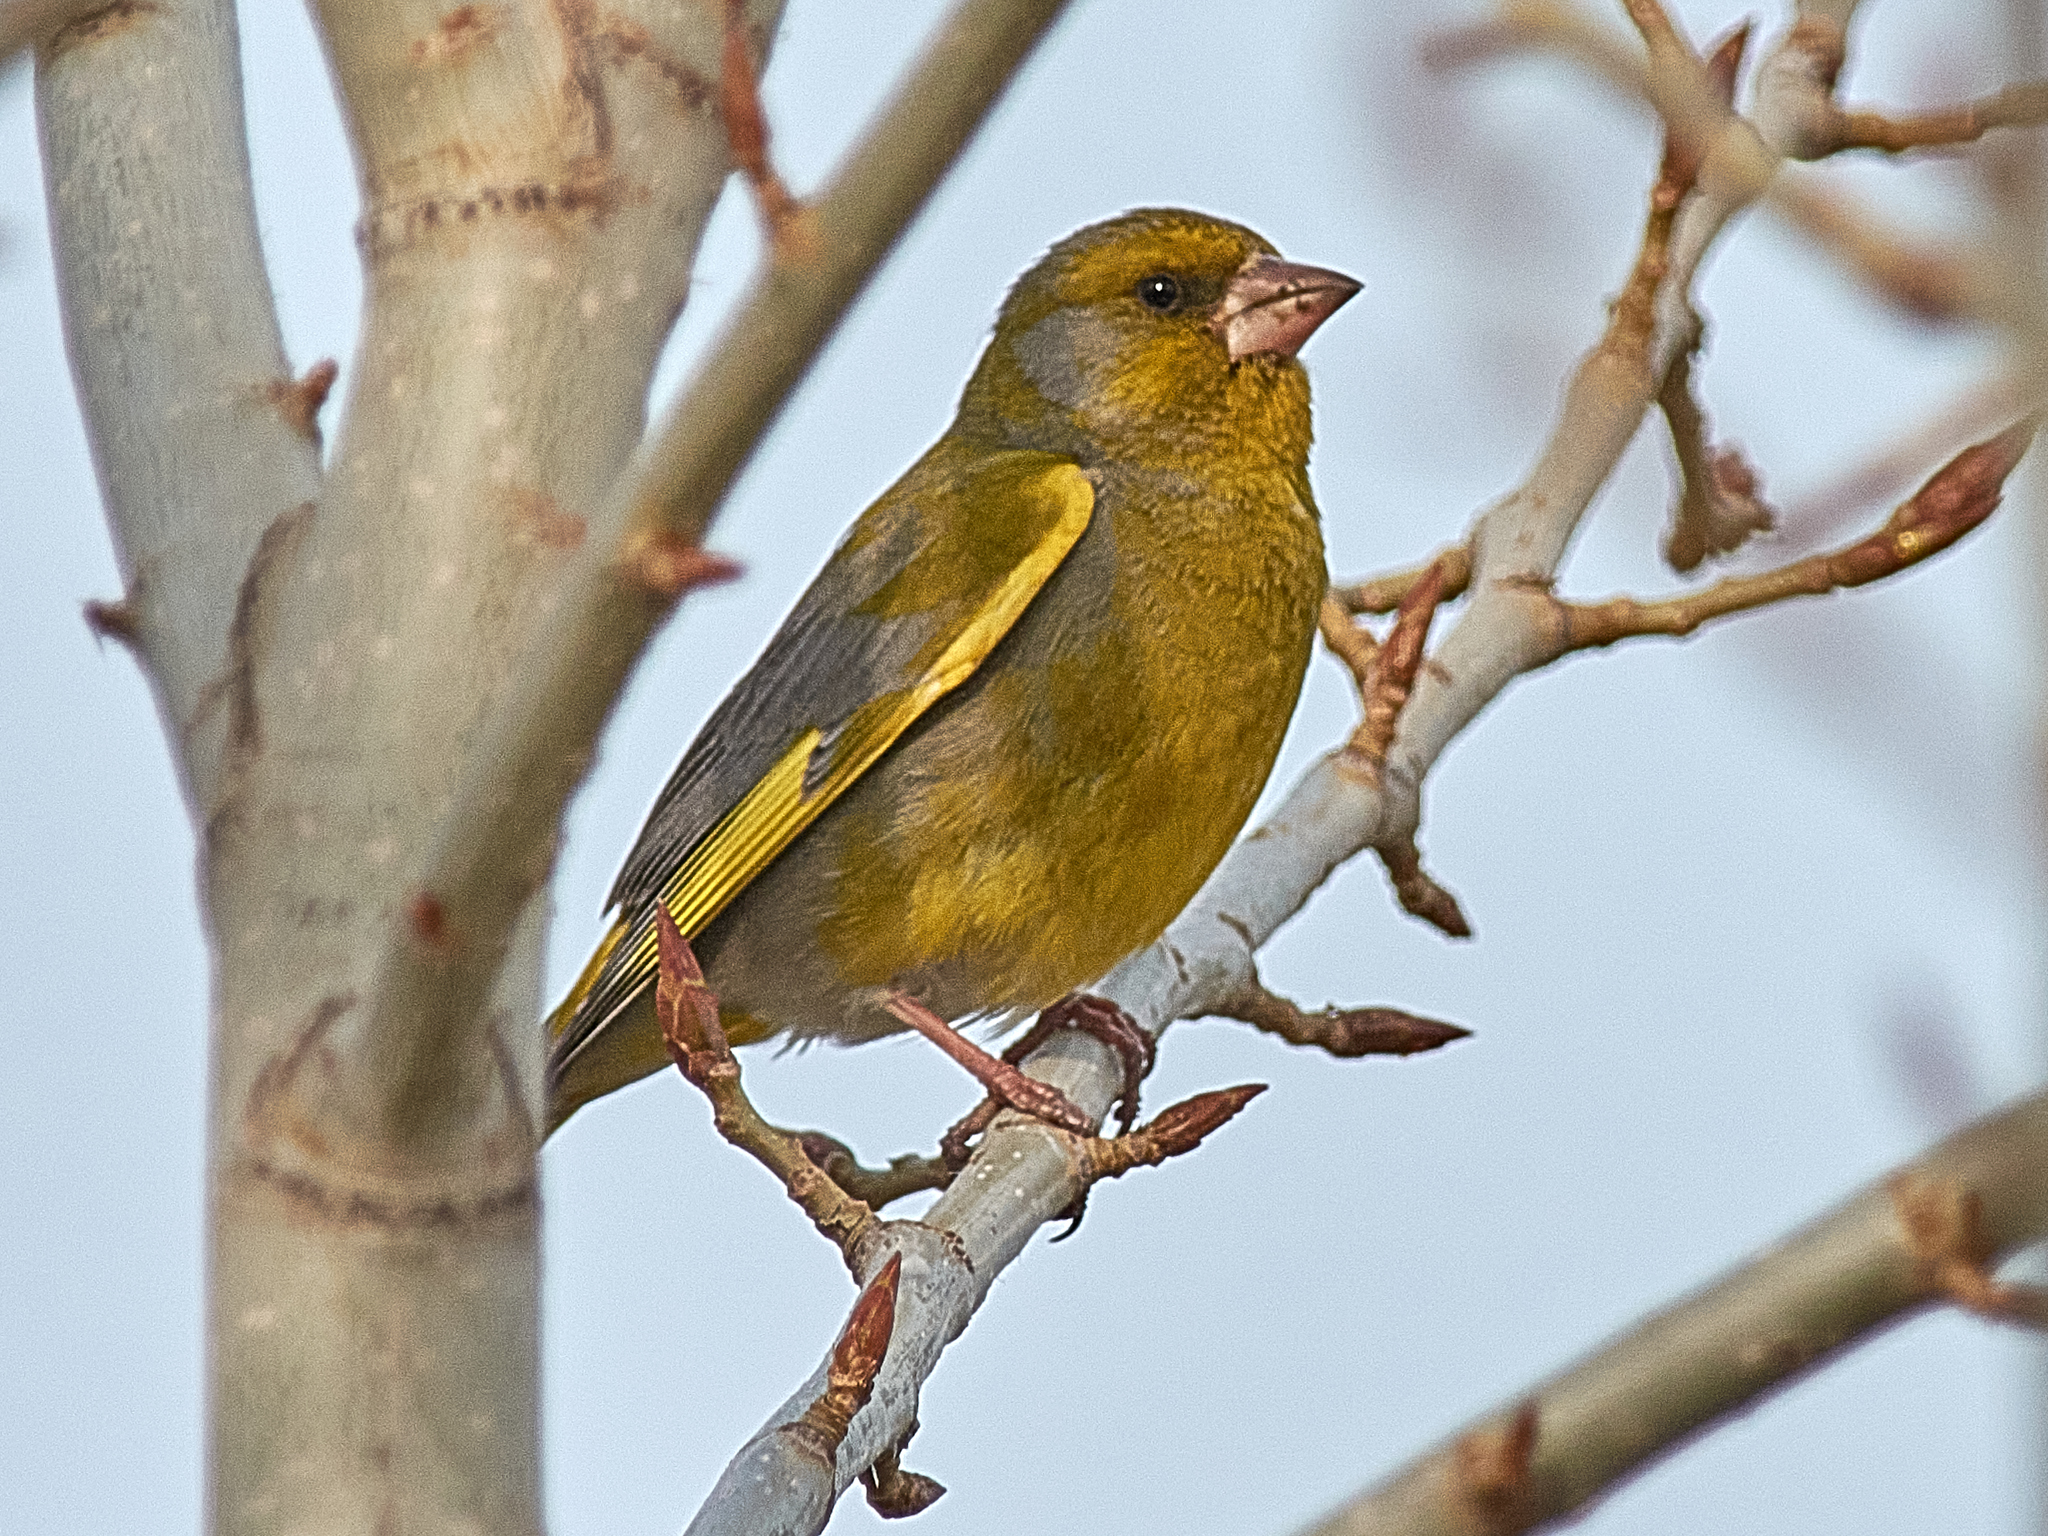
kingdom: Plantae
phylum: Tracheophyta
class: Liliopsida
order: Poales
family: Poaceae
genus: Chloris
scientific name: Chloris chloris
